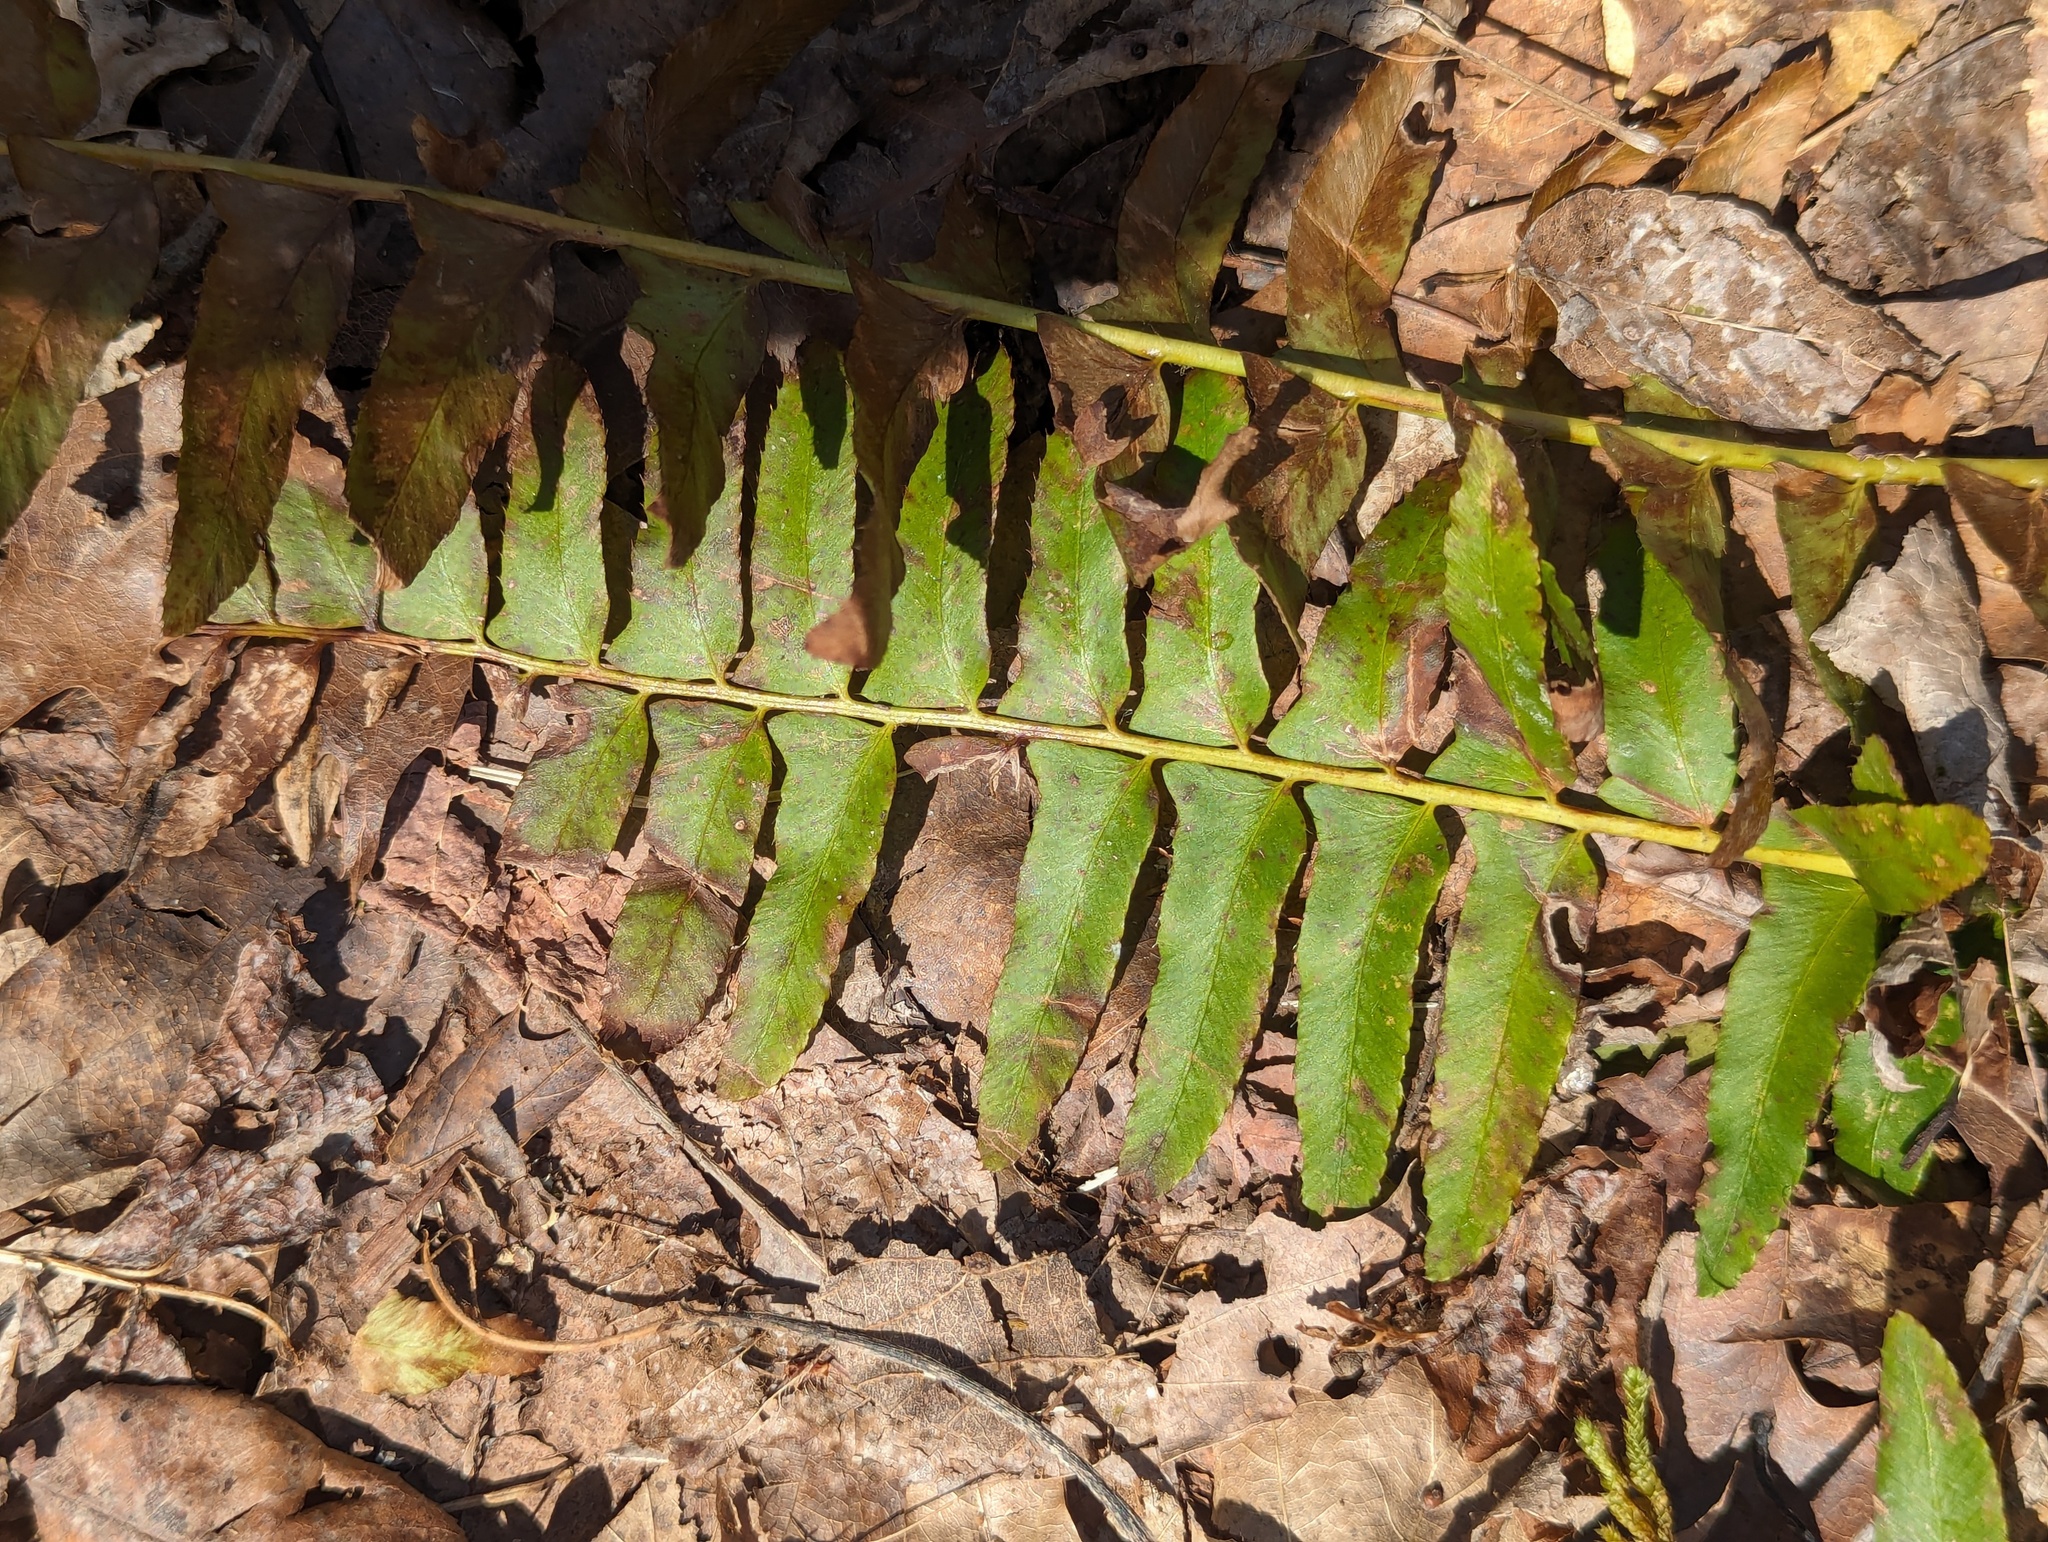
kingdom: Plantae
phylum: Tracheophyta
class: Polypodiopsida
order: Polypodiales
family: Dryopteridaceae
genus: Polystichum
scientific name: Polystichum acrostichoides
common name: Christmas fern
